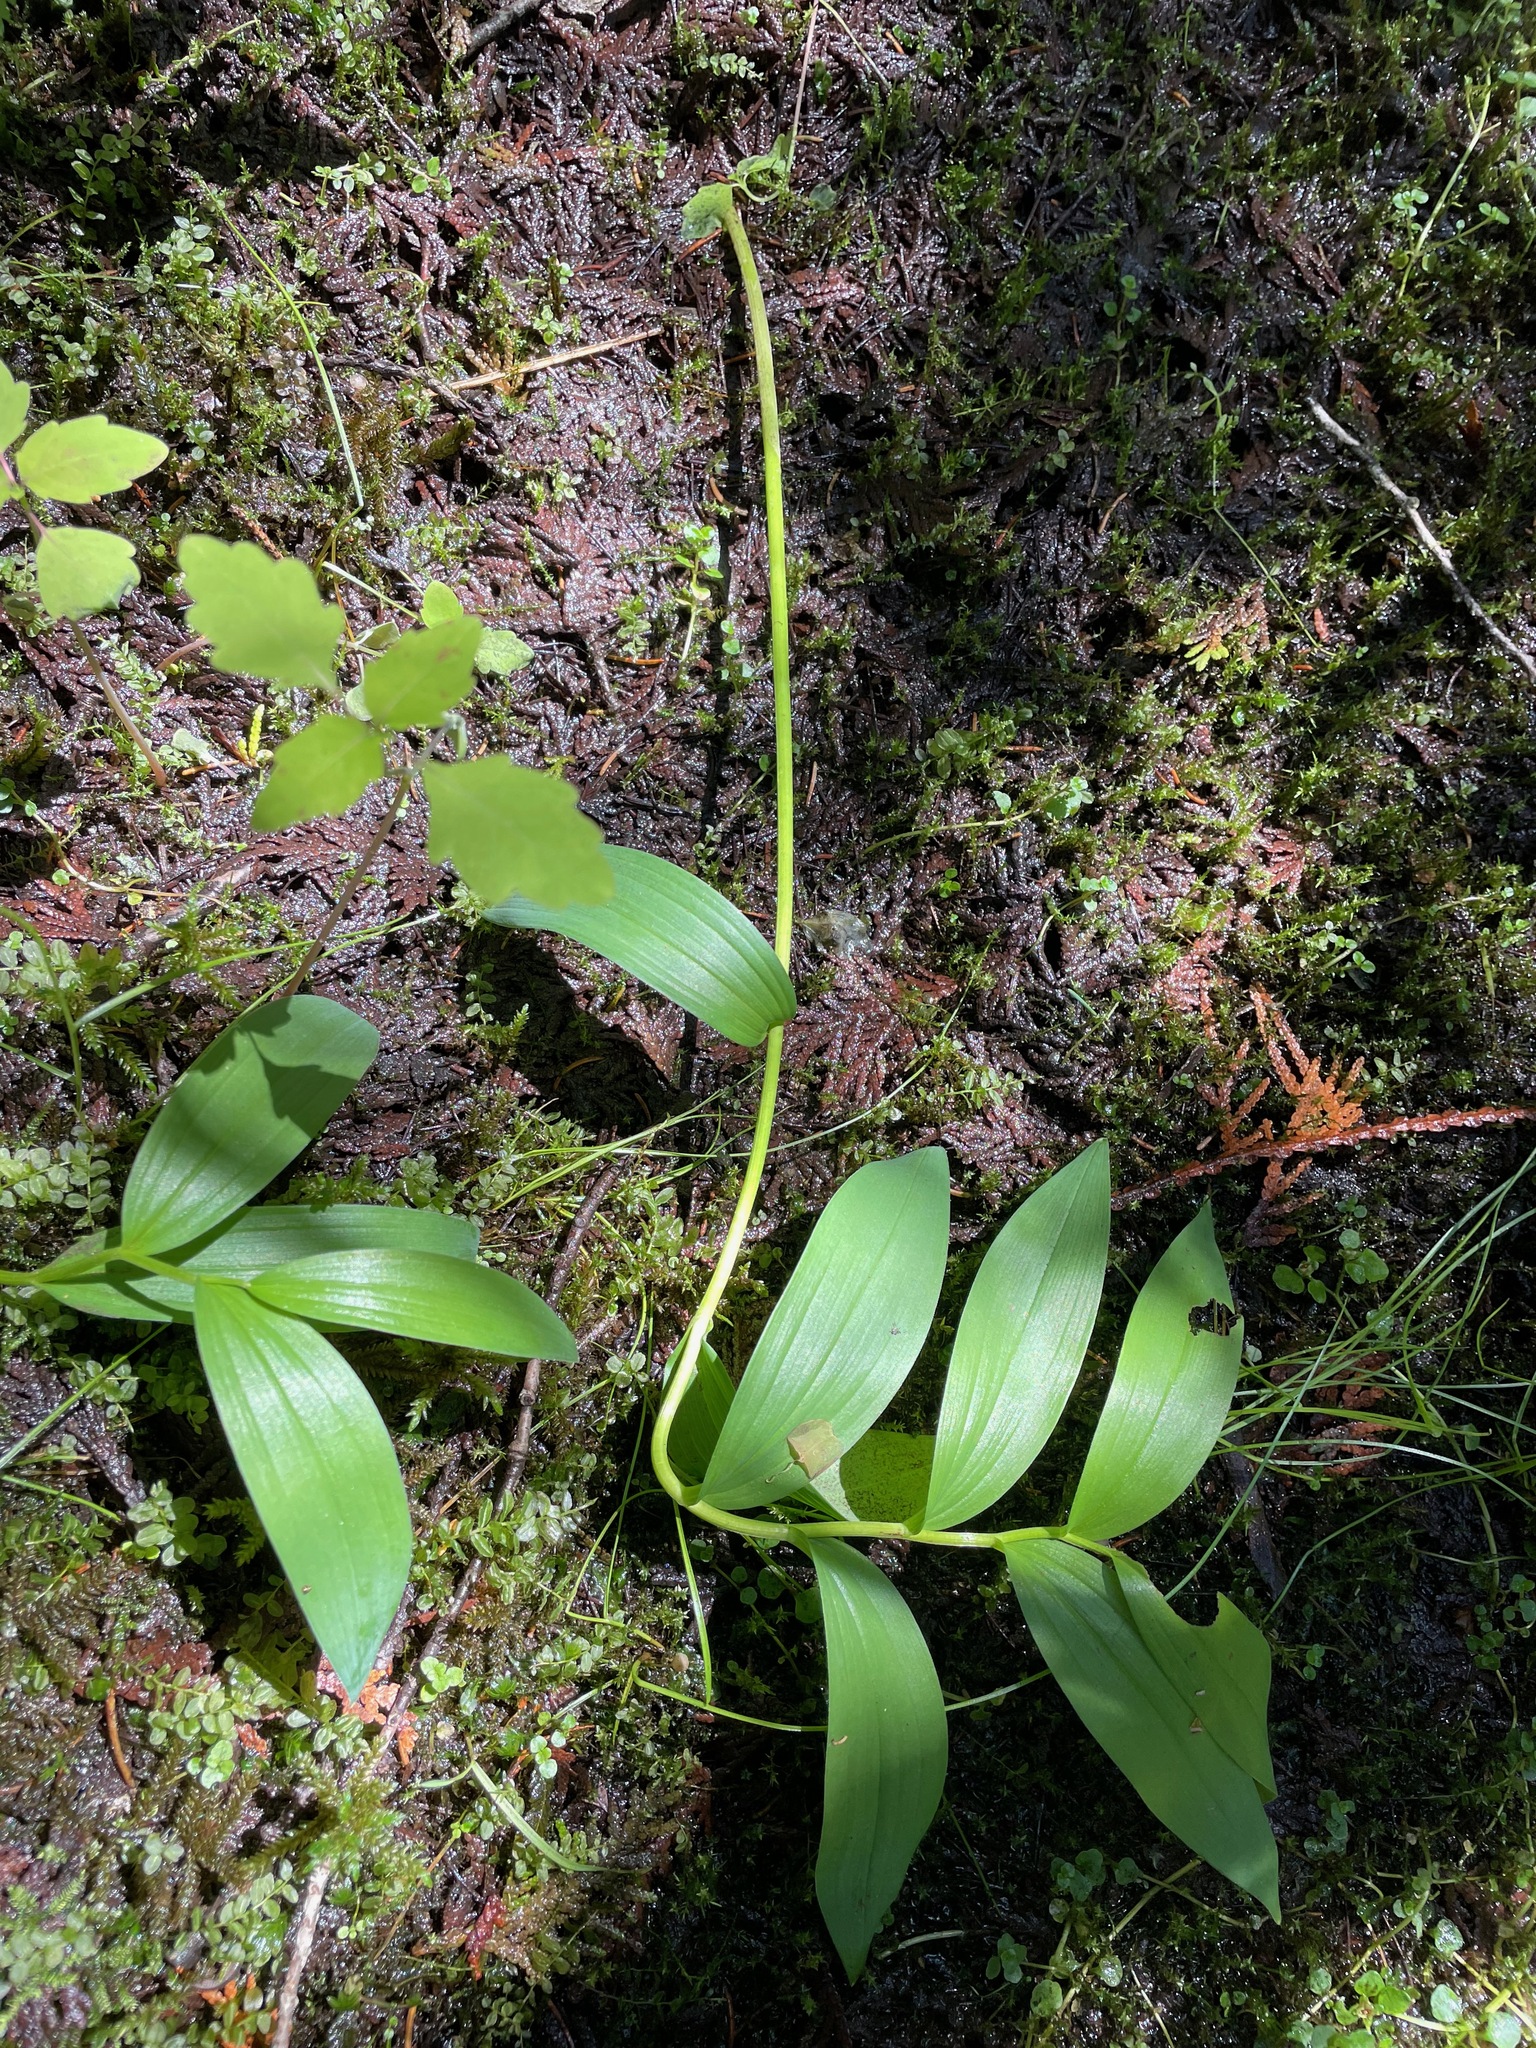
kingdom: Plantae
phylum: Tracheophyta
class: Liliopsida
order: Asparagales
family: Asparagaceae
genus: Maianthemum
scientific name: Maianthemum stellatum
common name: Little false solomon's seal
